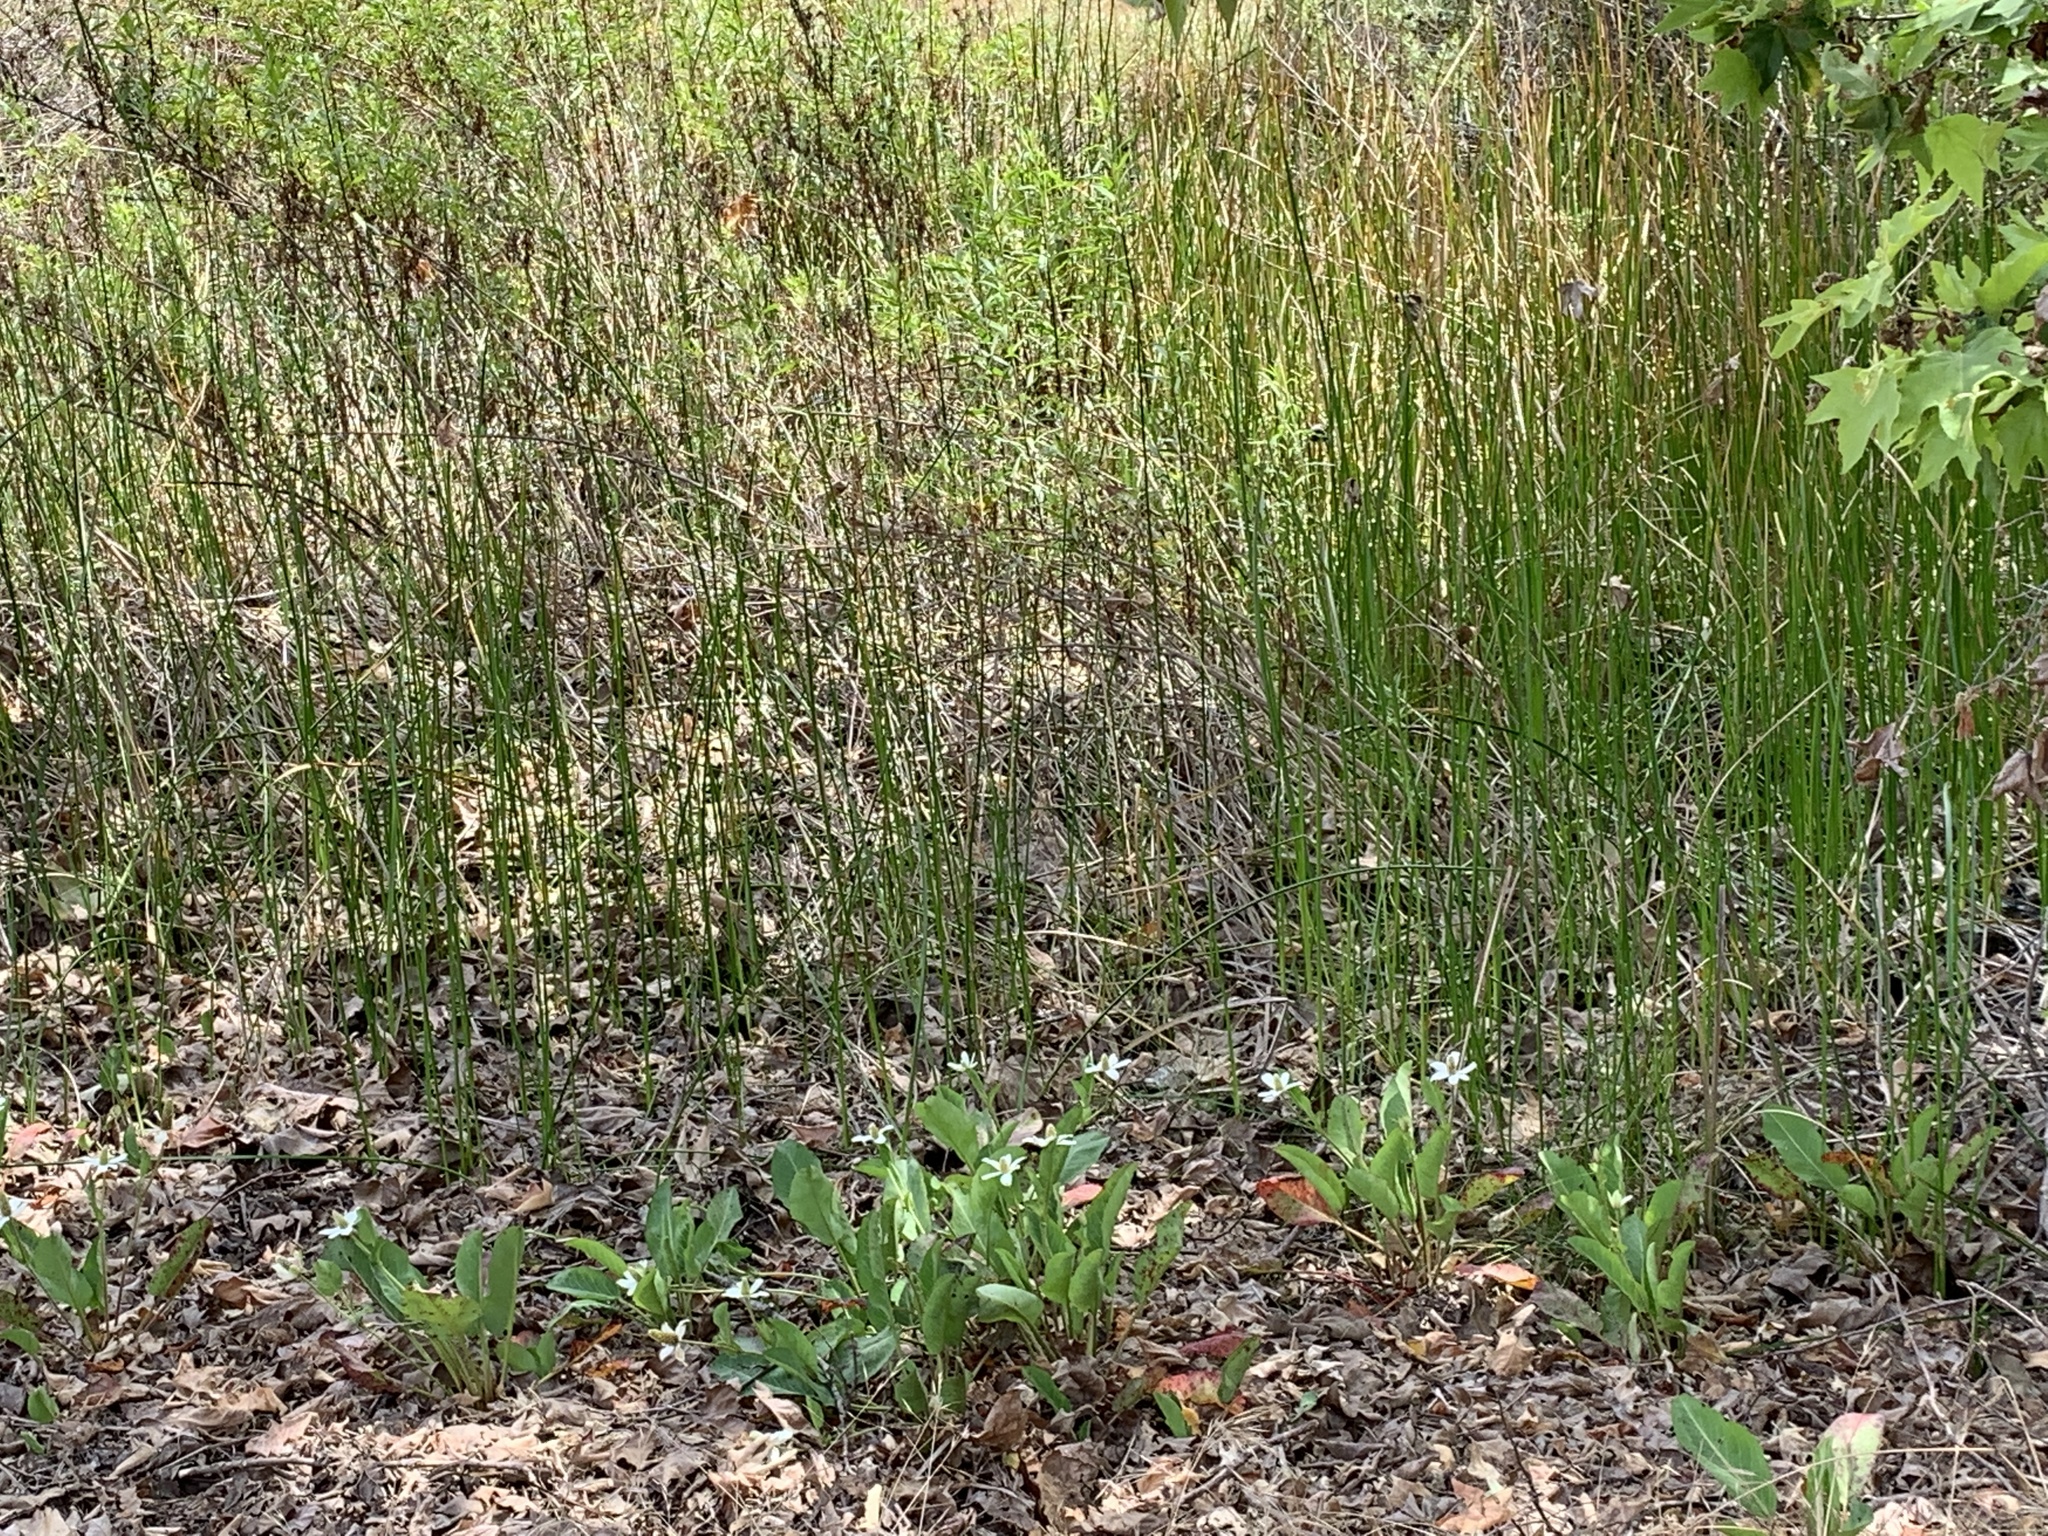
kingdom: Plantae
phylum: Tracheophyta
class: Magnoliopsida
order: Piperales
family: Saururaceae
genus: Anemopsis
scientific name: Anemopsis californica
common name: Apache-beads
